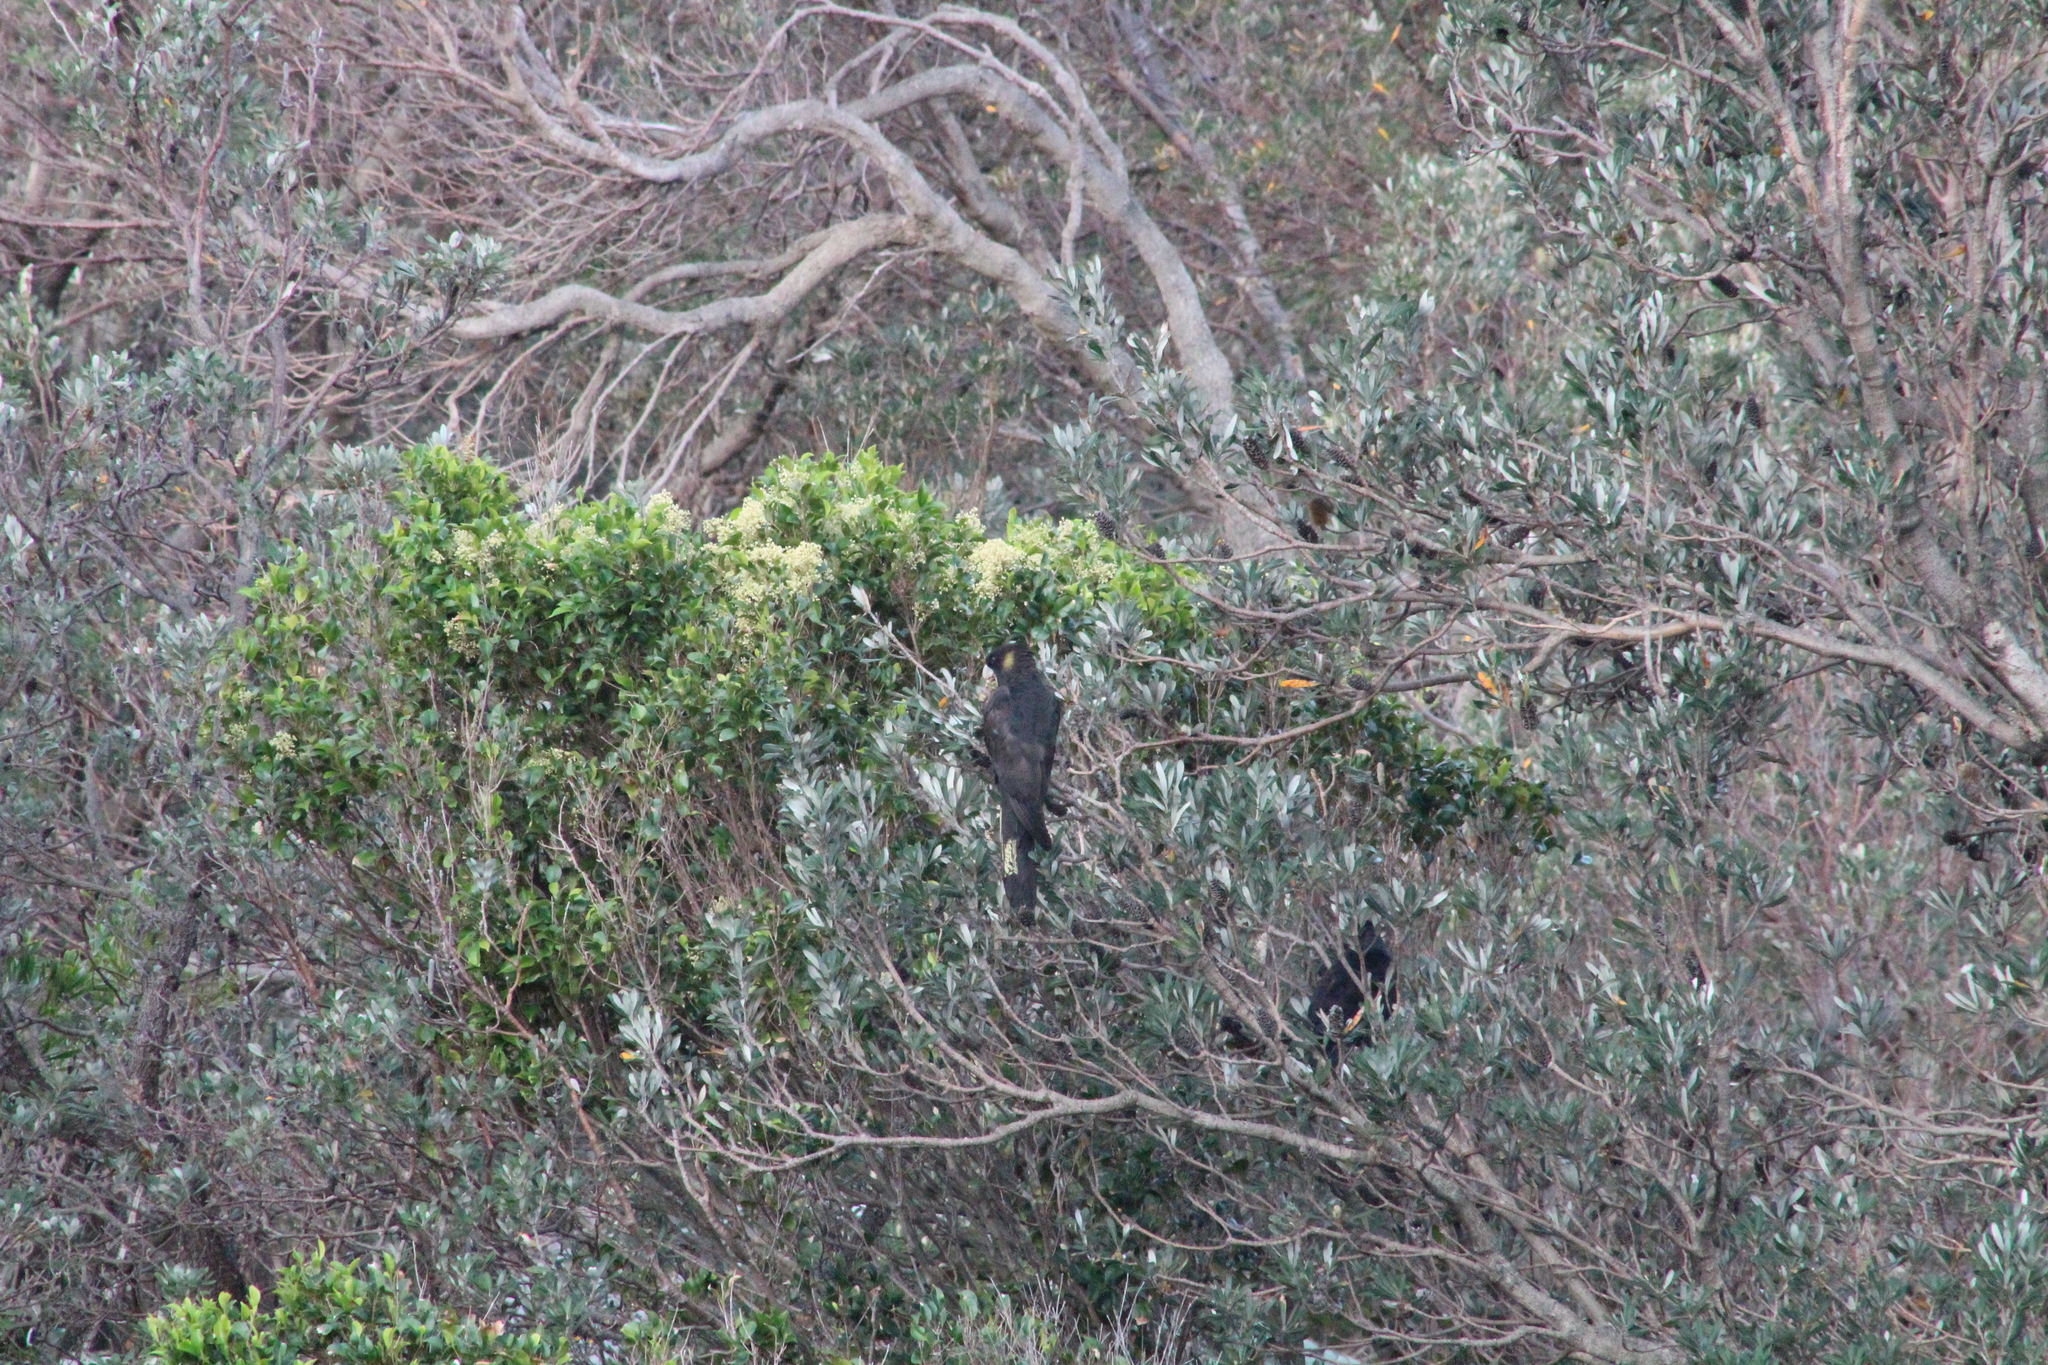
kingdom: Animalia
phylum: Chordata
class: Aves
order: Psittaciformes
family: Cacatuidae
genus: Zanda
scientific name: Zanda funerea
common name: Yellow-tailed black-cockatoo
